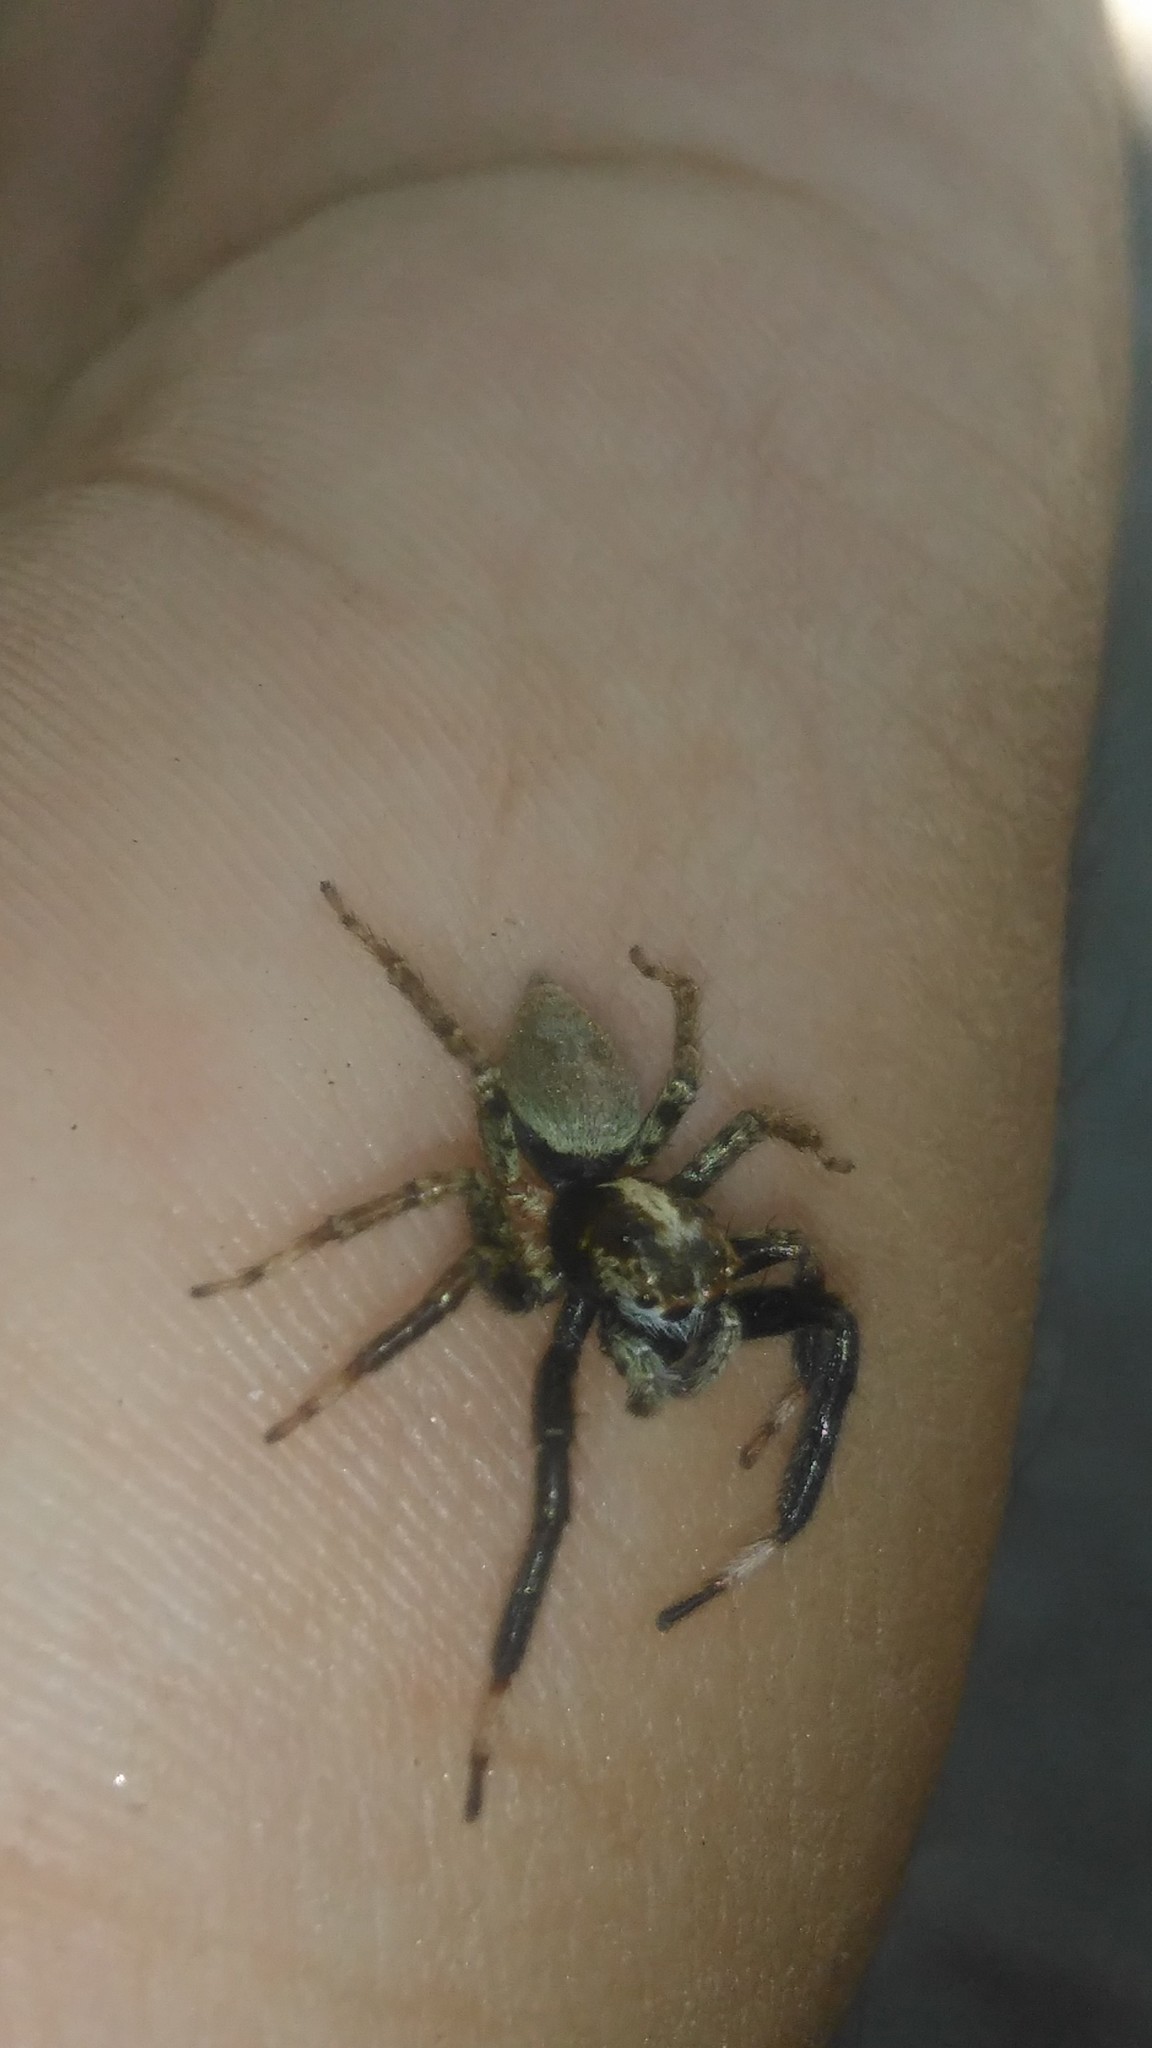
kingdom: Animalia
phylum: Arthropoda
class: Arachnida
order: Araneae
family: Salticidae
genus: Asaphobelis
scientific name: Asaphobelis physonychus
